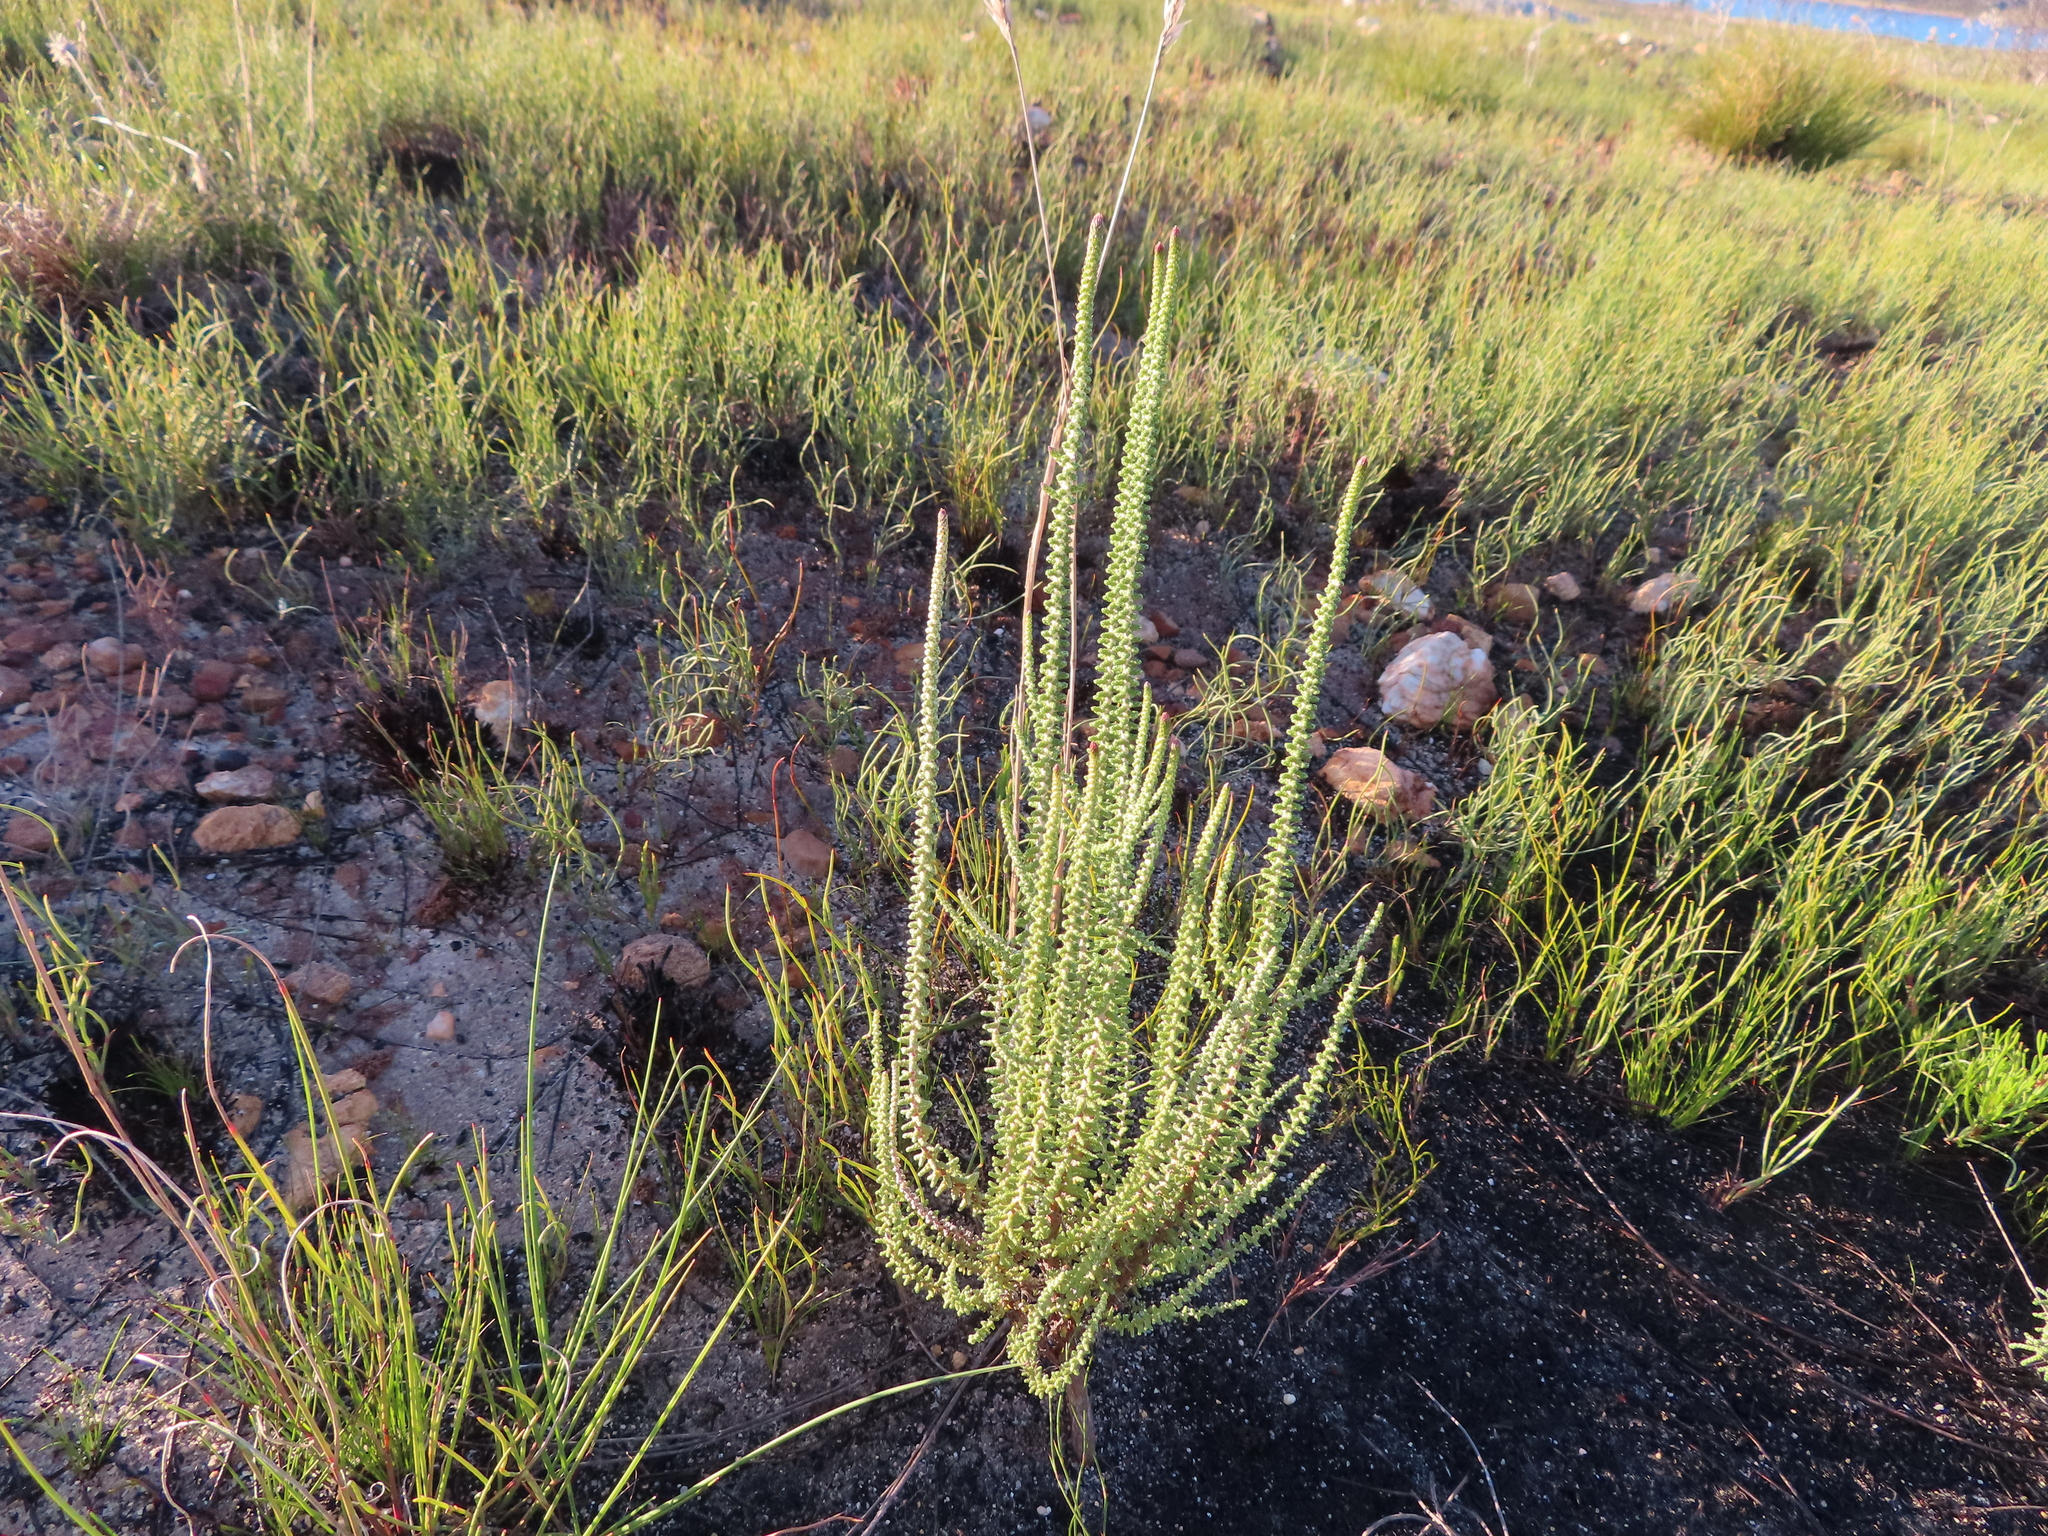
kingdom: Plantae
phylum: Tracheophyta
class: Magnoliopsida
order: Asterales
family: Asteraceae
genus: Phaenocoma
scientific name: Phaenocoma prolifera
